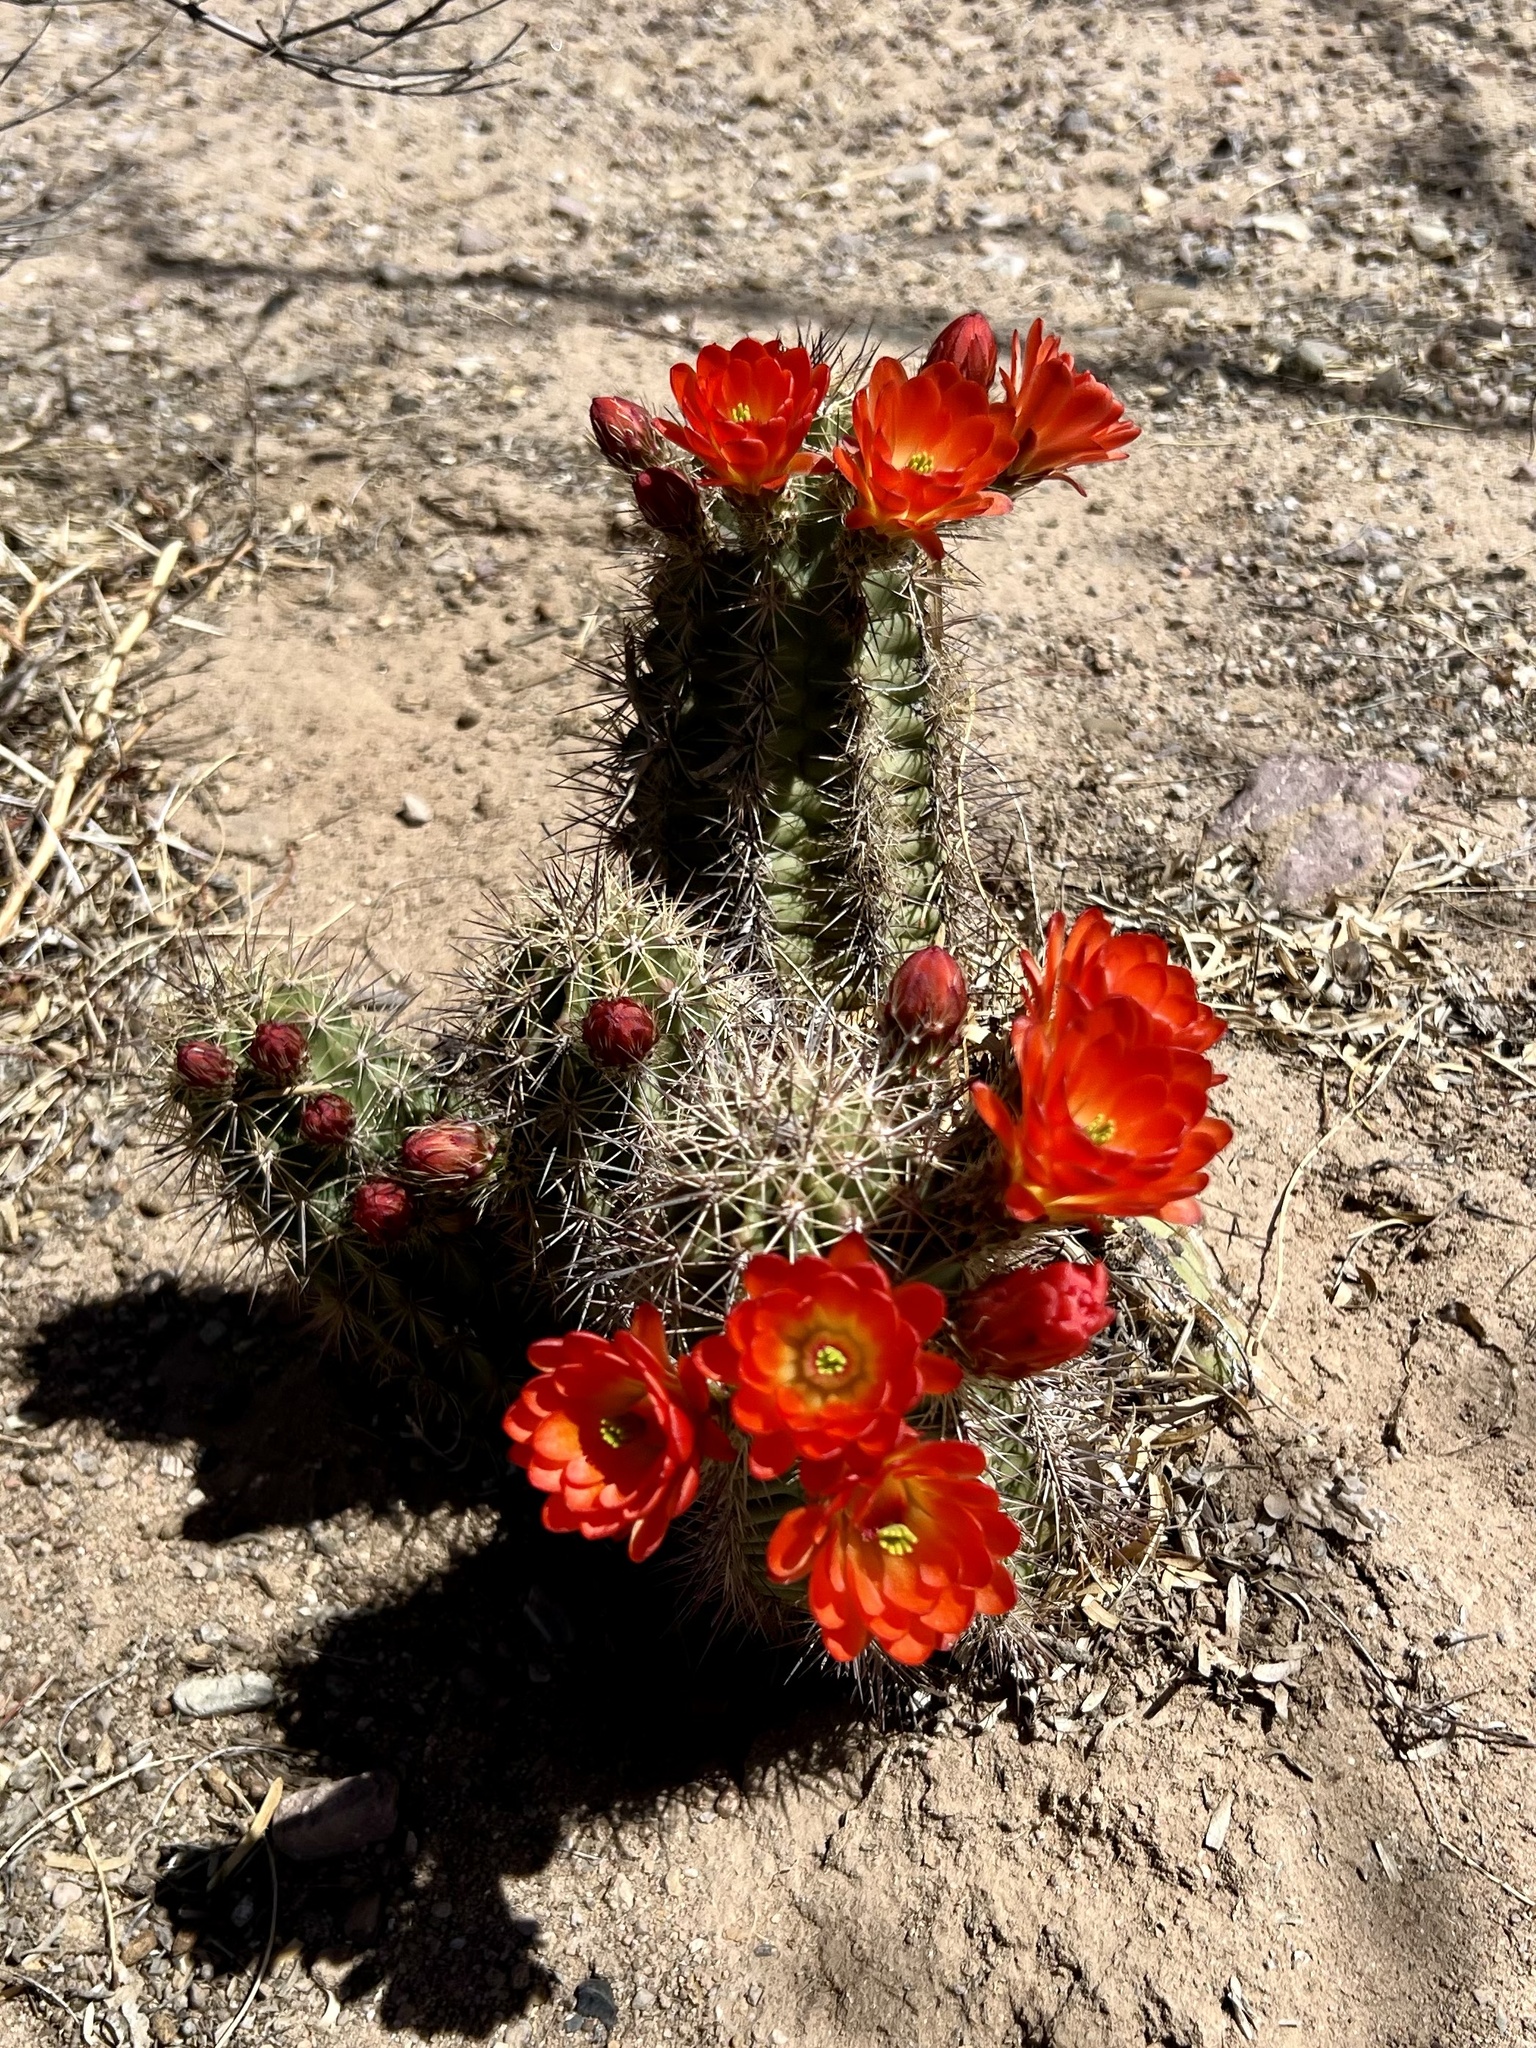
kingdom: Plantae
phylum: Tracheophyta
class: Magnoliopsida
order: Caryophyllales
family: Cactaceae
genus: Echinocereus
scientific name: Echinocereus coccineus
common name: Scarlet hedgehog cactus
